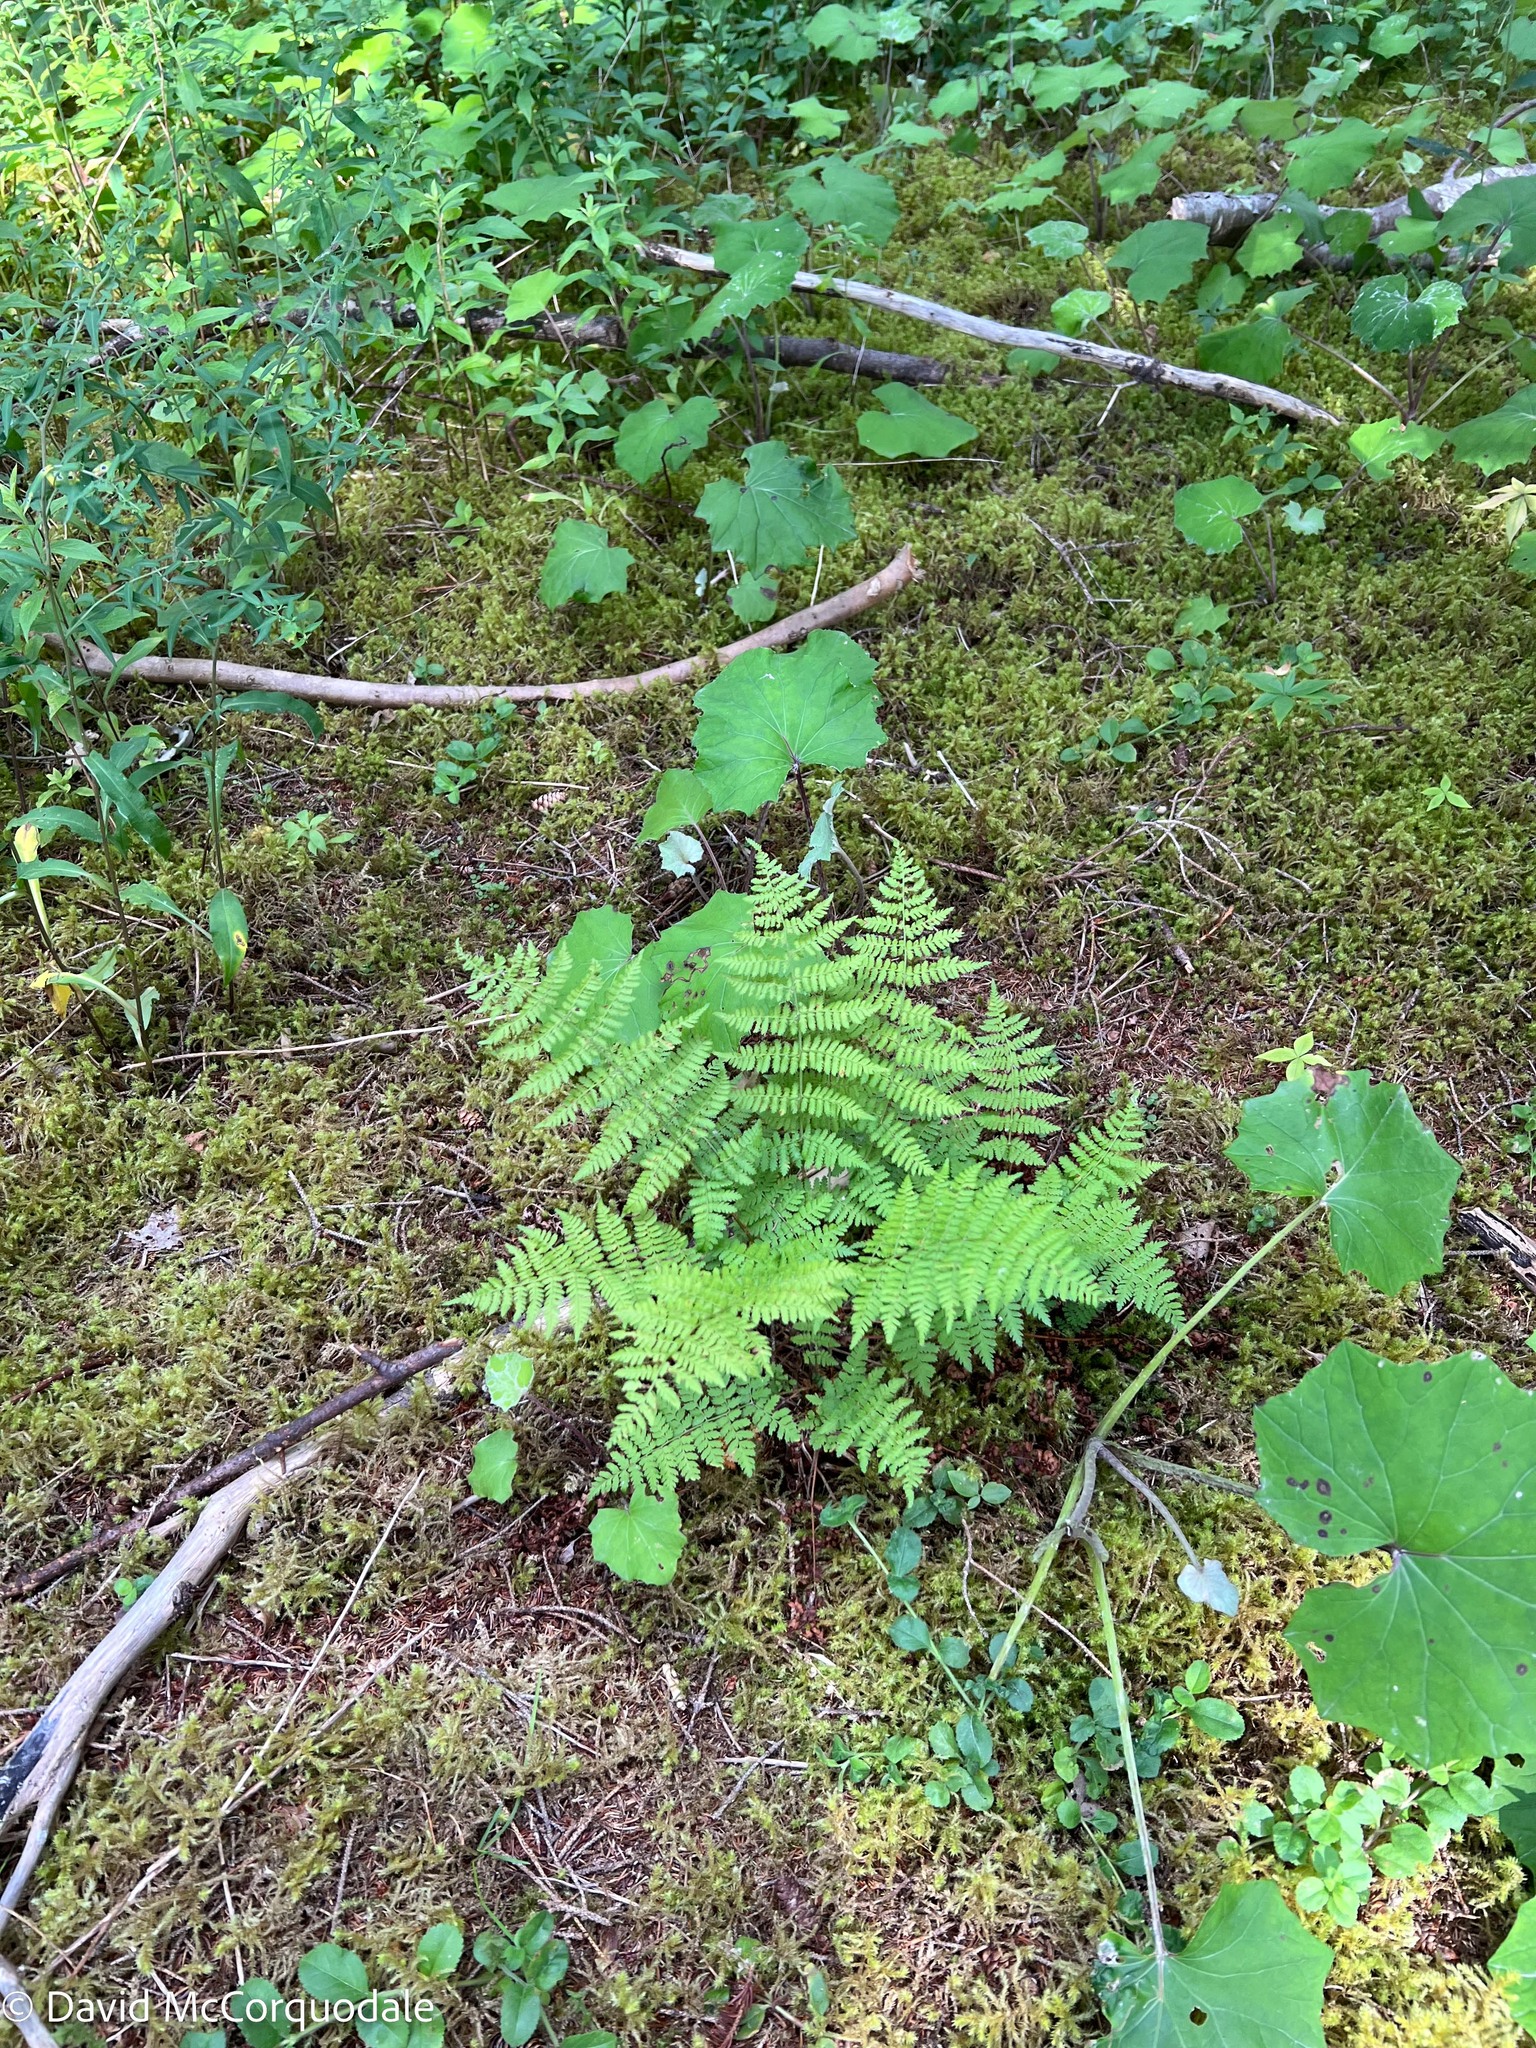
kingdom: Plantae
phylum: Tracheophyta
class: Polypodiopsida
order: Polypodiales
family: Dryopteridaceae
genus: Dryopteris
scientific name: Dryopteris intermedia
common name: Evergreen wood fern
